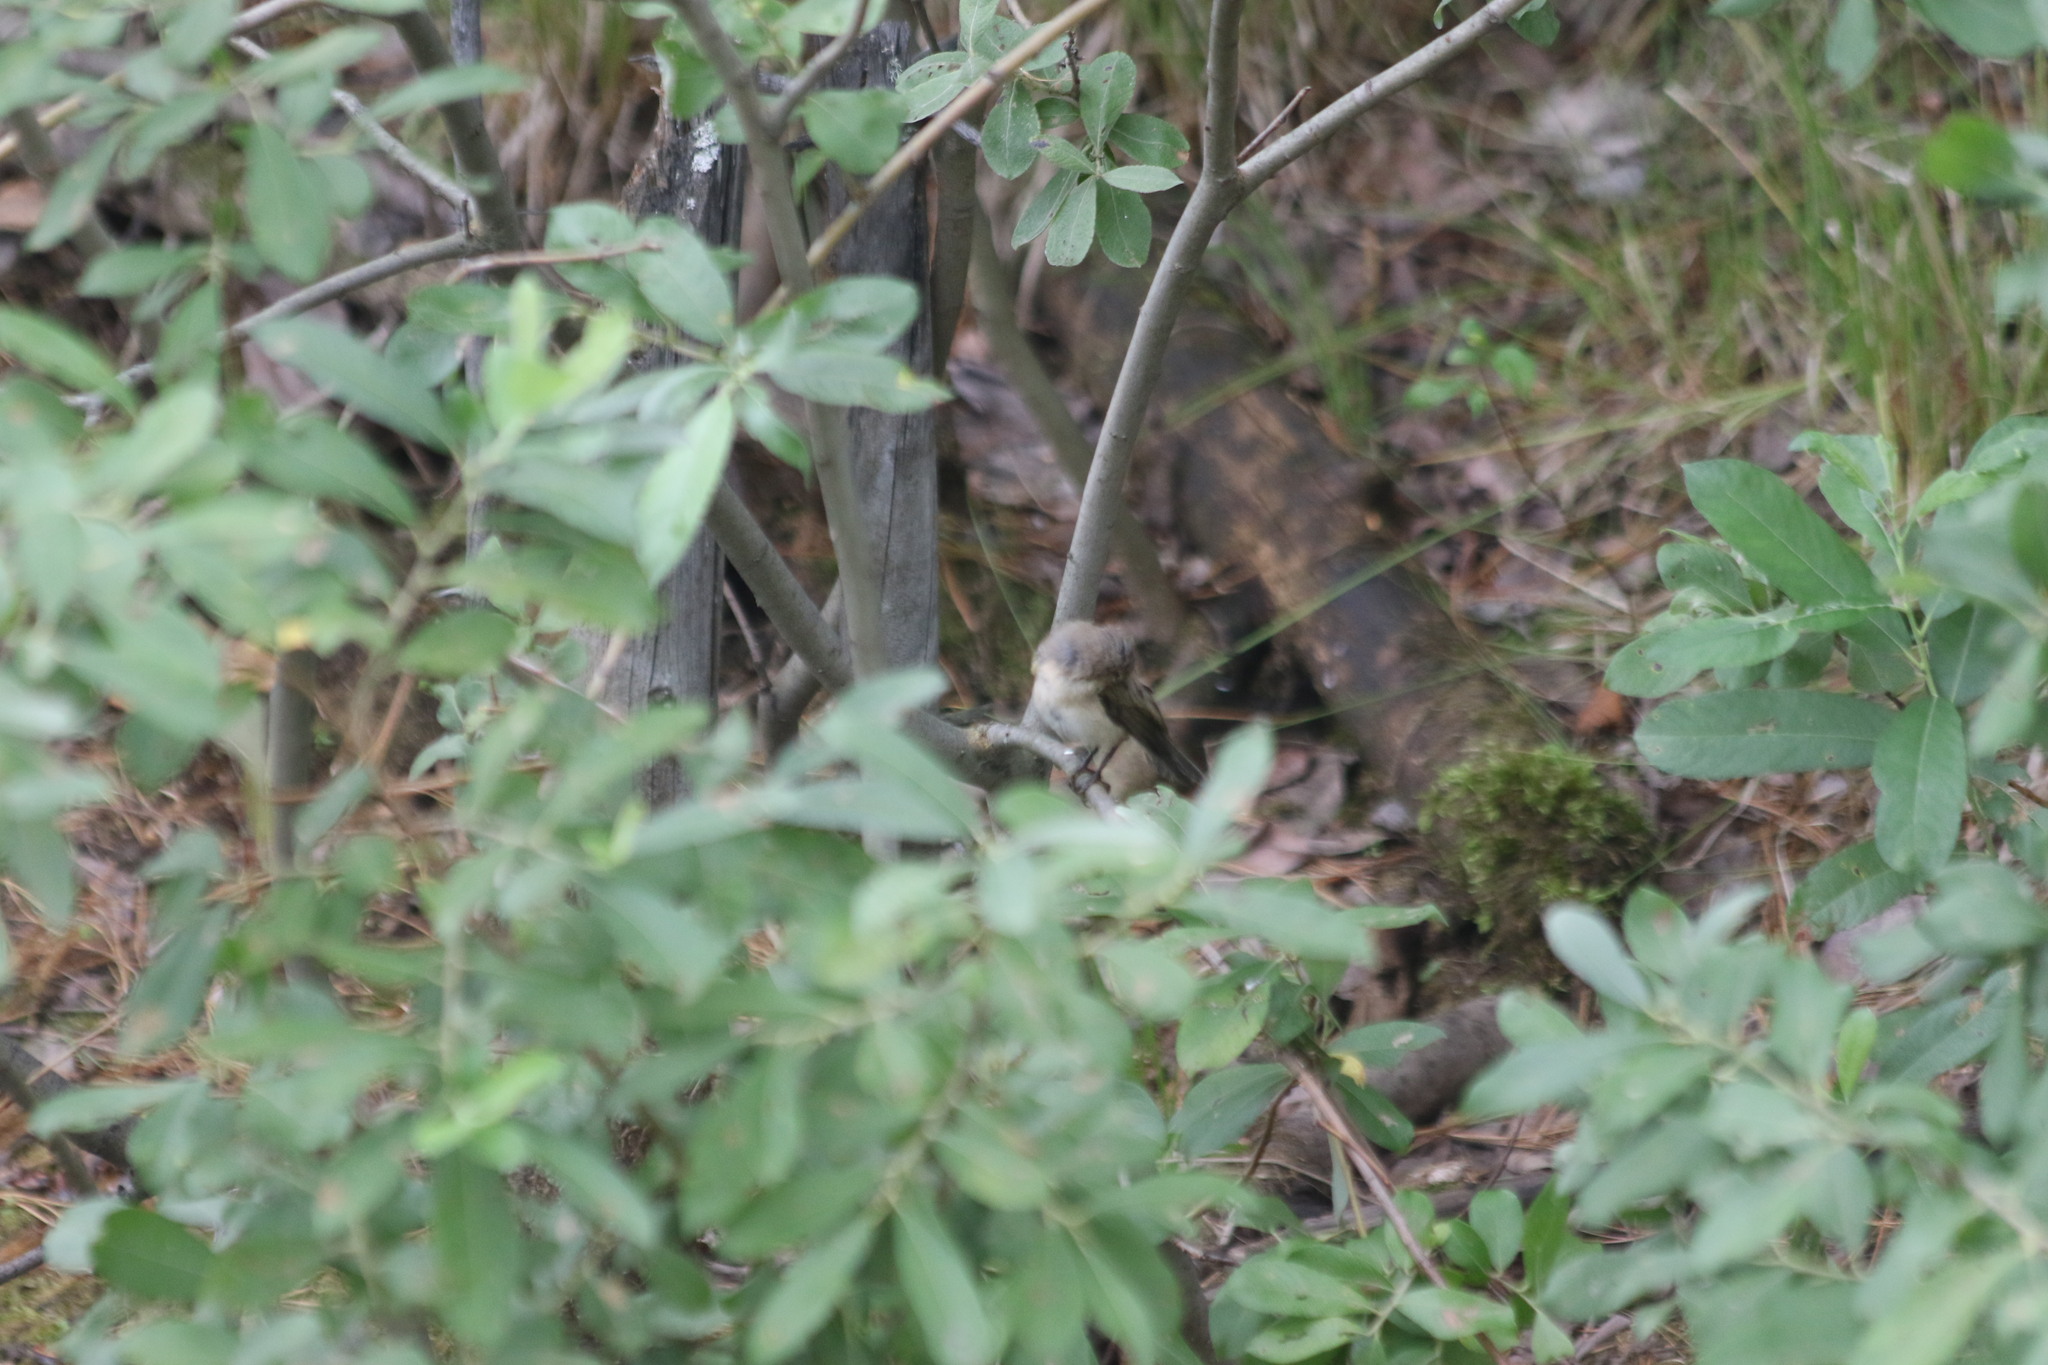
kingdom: Animalia
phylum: Chordata
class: Aves
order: Passeriformes
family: Phylloscopidae
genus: Phylloscopus
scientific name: Phylloscopus collybita
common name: Common chiffchaff
